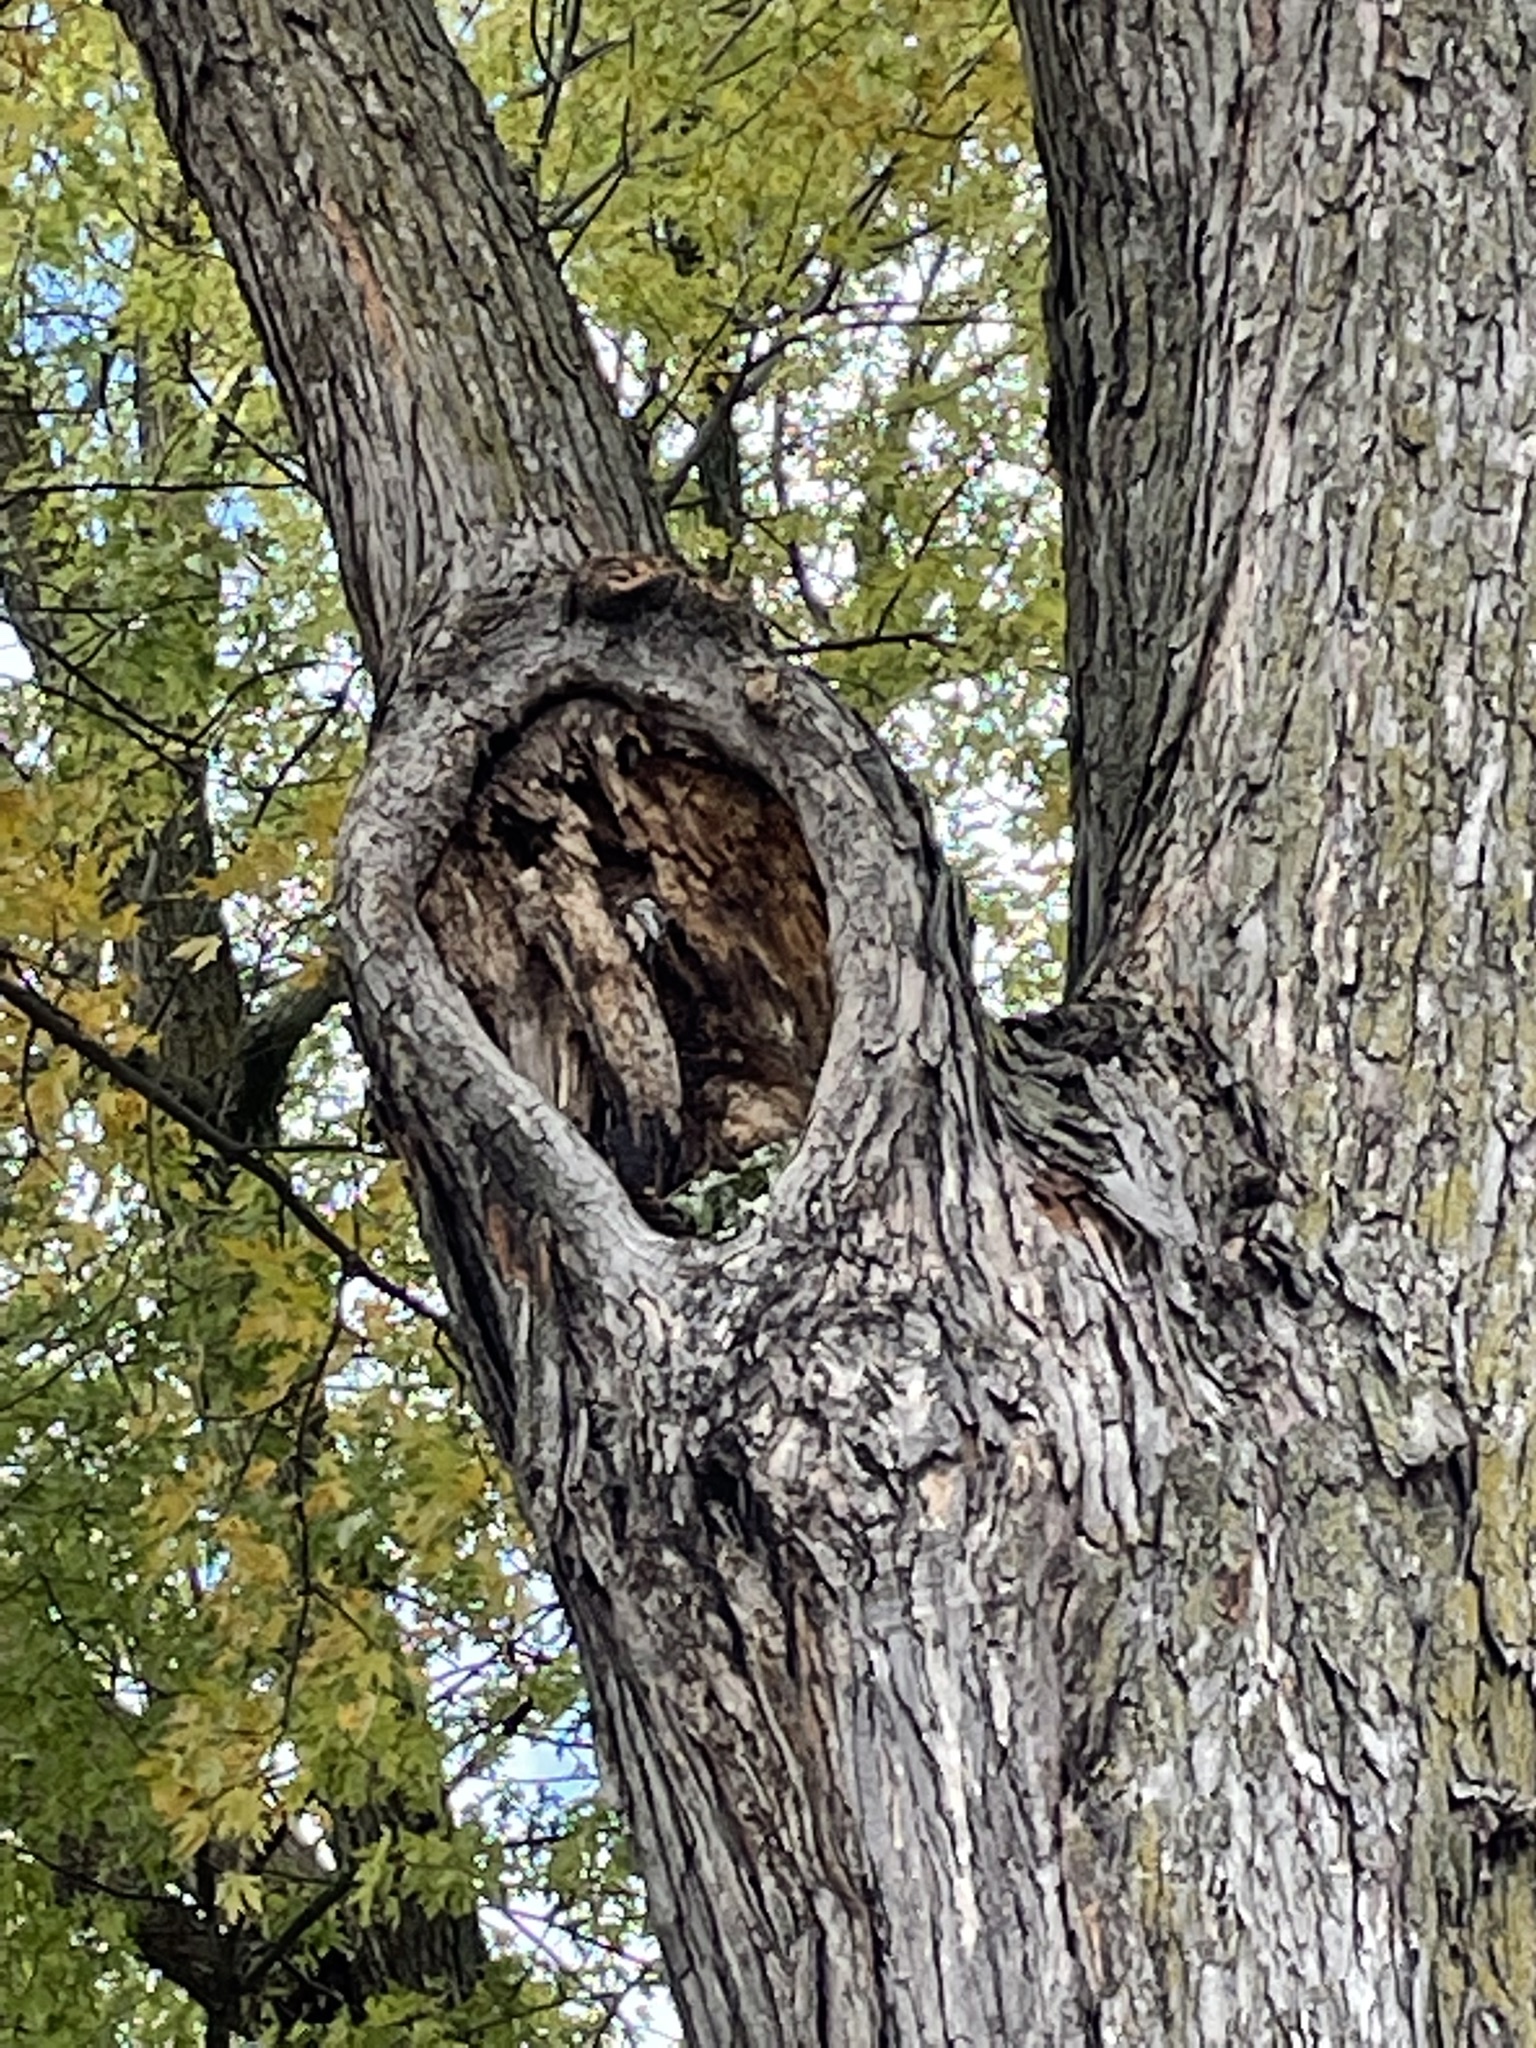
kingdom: Animalia
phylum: Chordata
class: Aves
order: Passeriformes
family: Paridae
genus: Poecile
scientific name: Poecile atricapillus
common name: Black-capped chickadee
